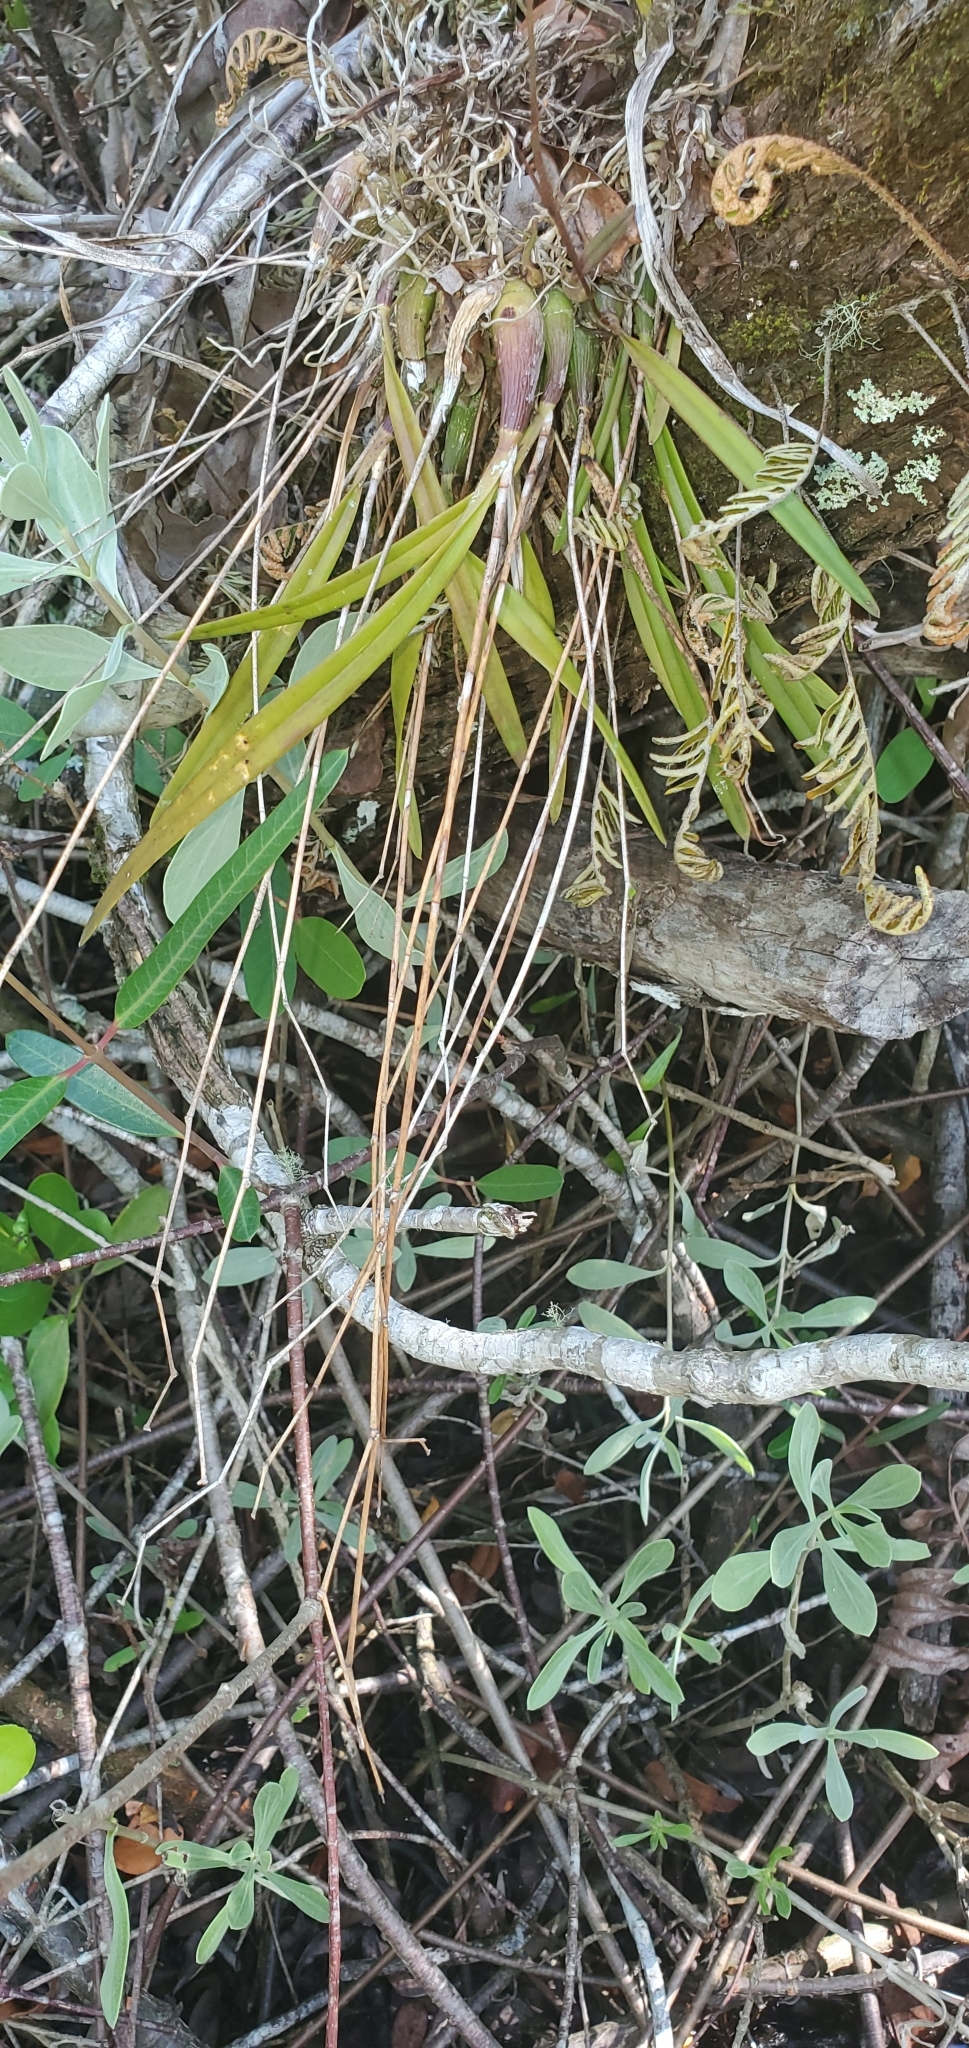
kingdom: Plantae
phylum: Tracheophyta
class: Liliopsida
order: Asparagales
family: Orchidaceae
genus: Encyclia
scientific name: Encyclia tampensis
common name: Florida butterfly orchid
